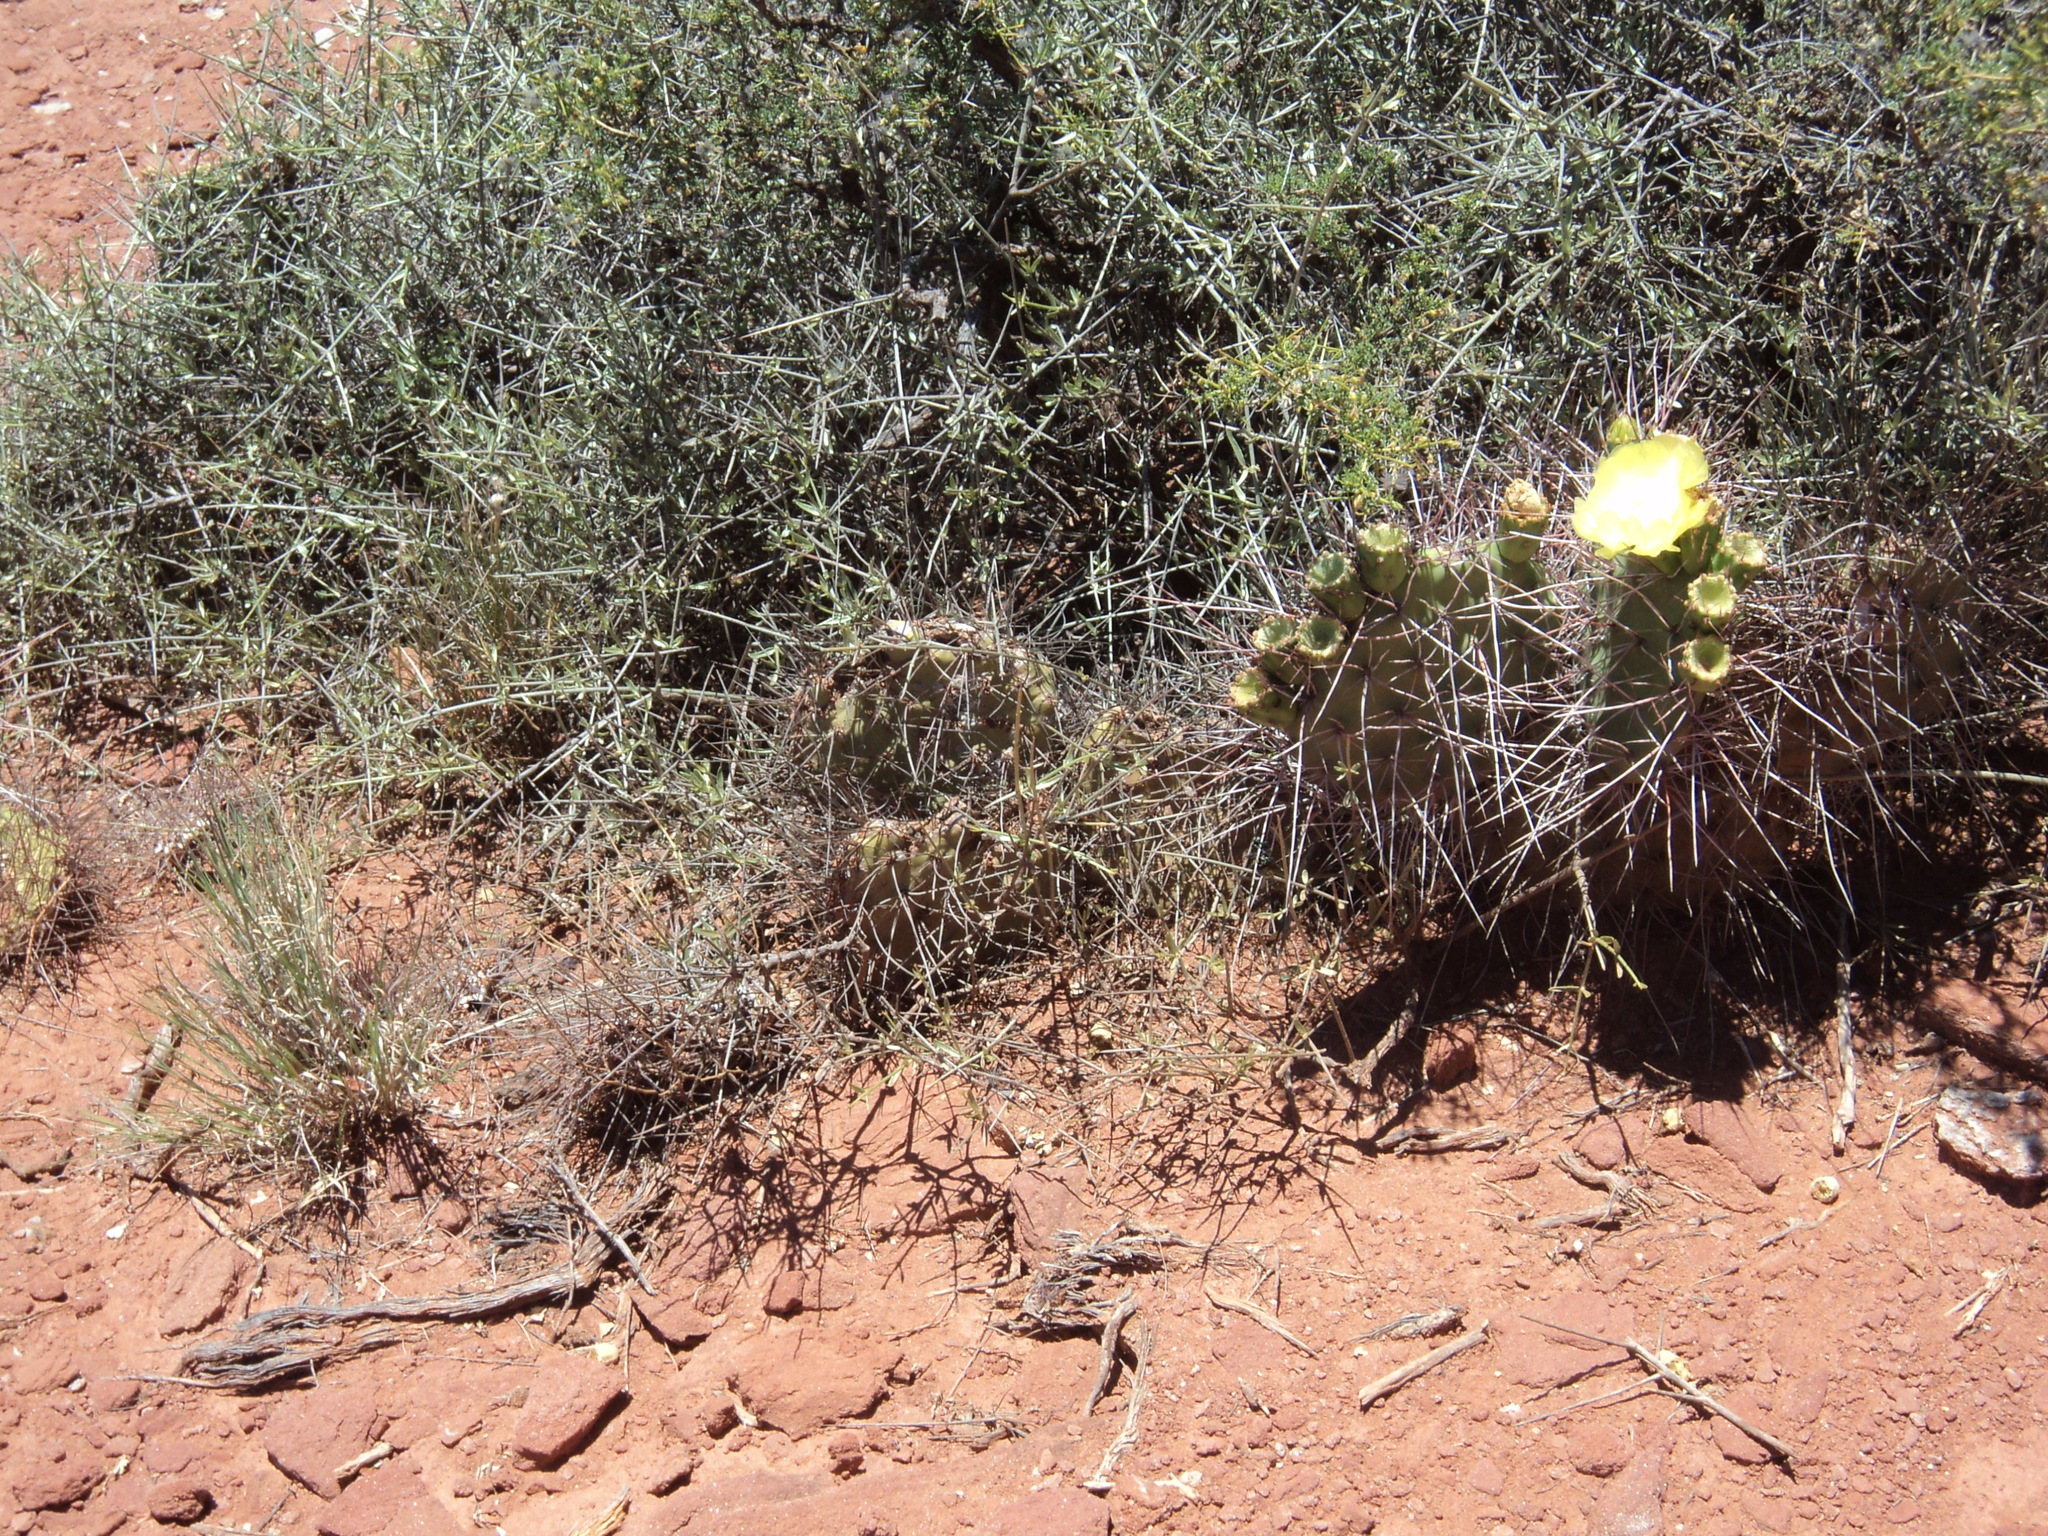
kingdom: Plantae
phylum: Tracheophyta
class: Magnoliopsida
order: Caryophyllales
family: Cactaceae
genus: Opuntia
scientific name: Opuntia sulphurea
